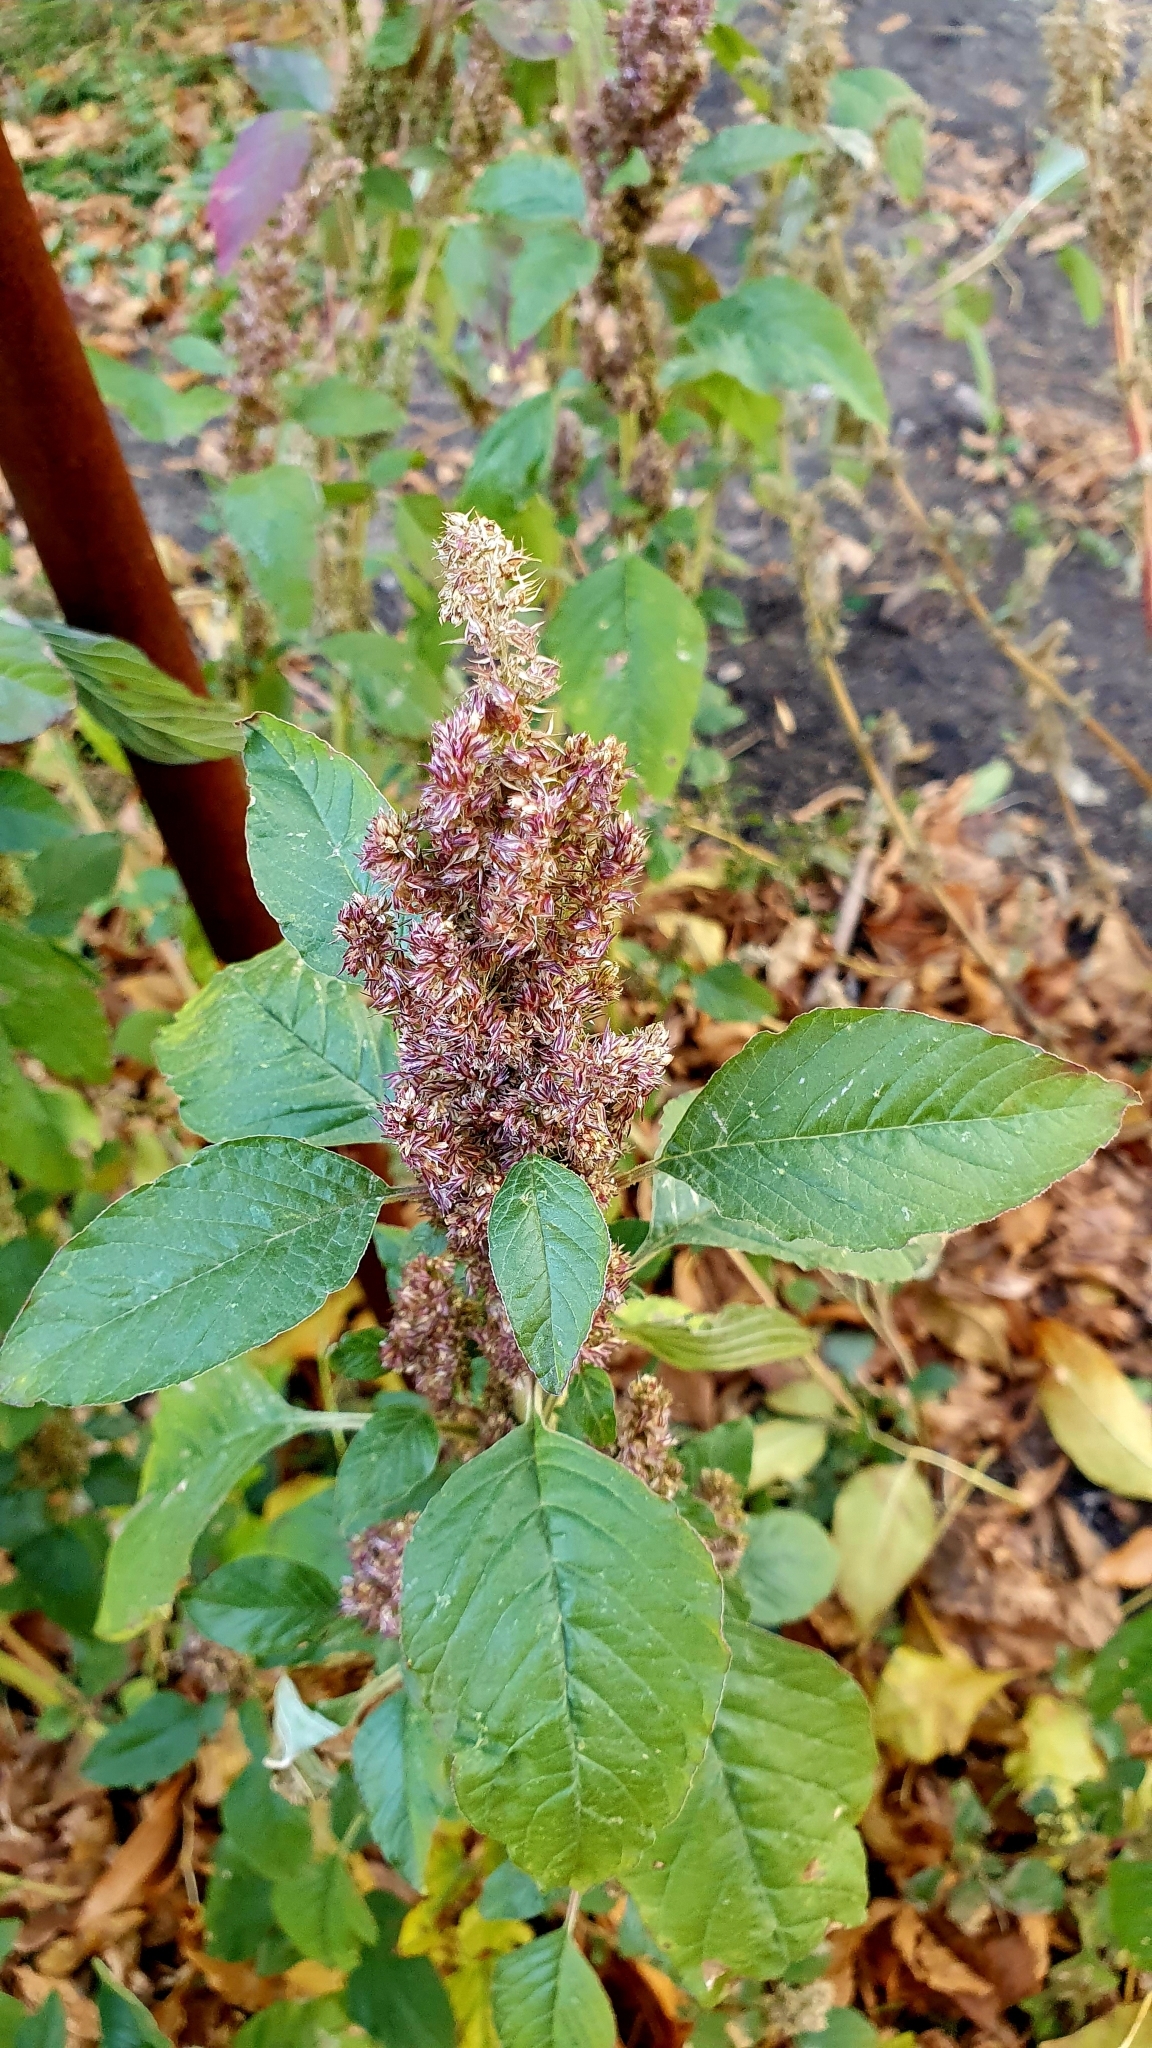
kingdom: Plantae
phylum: Tracheophyta
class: Magnoliopsida
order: Caryophyllales
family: Amaranthaceae
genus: Amaranthus
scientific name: Amaranthus retroflexus
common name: Redroot amaranth
